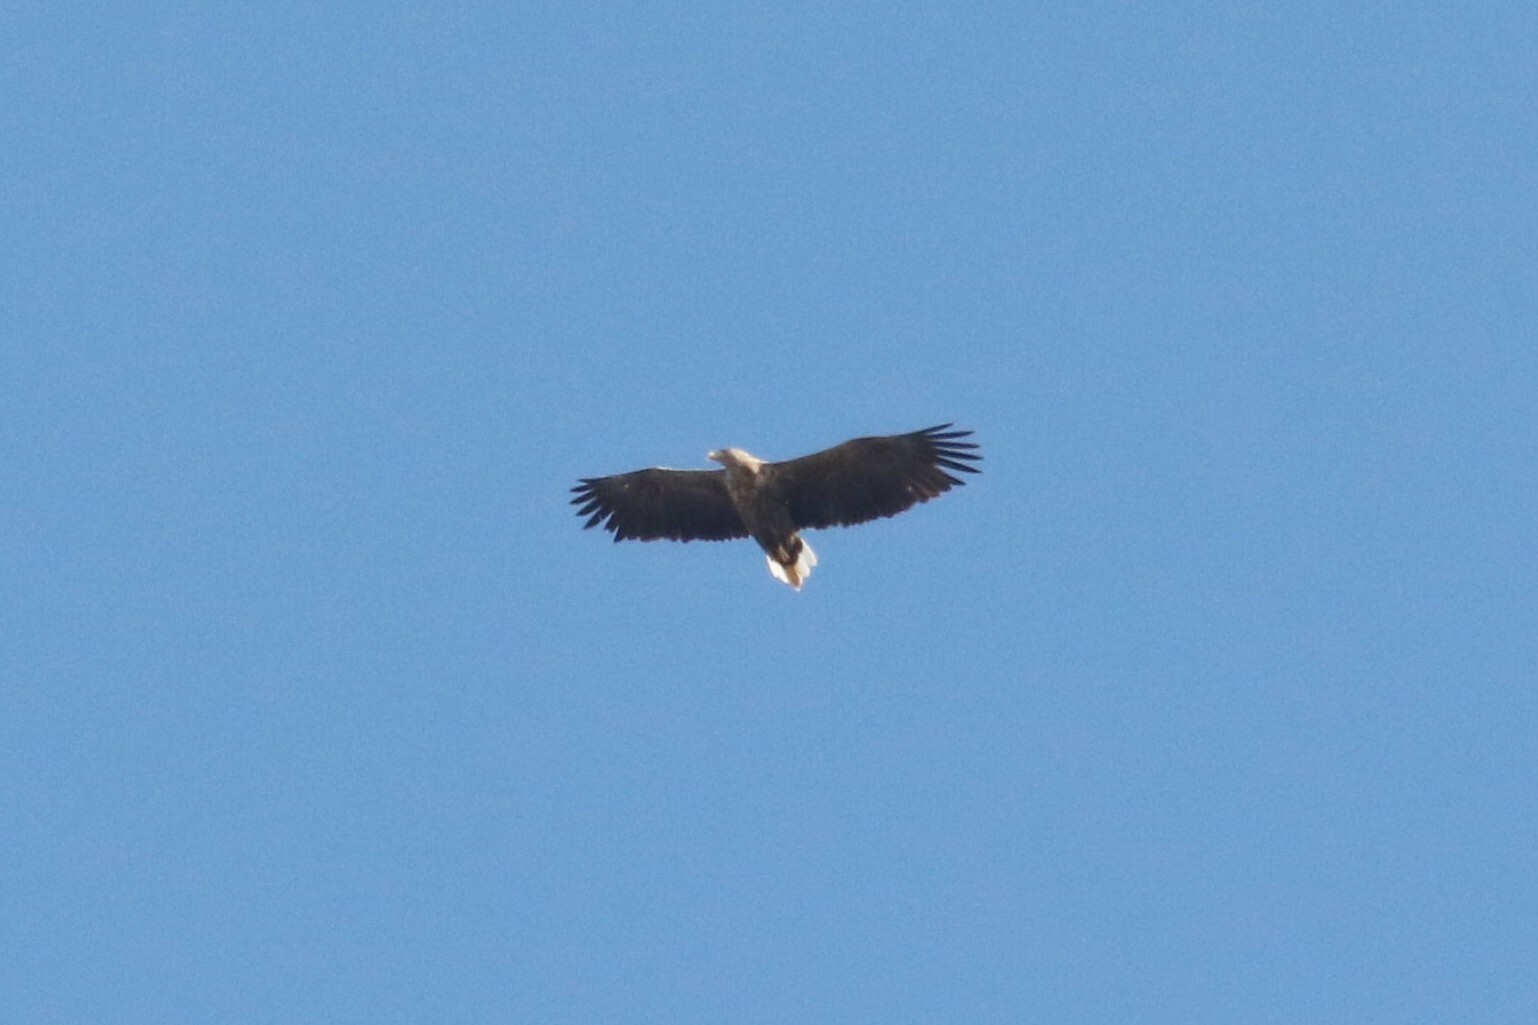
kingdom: Animalia
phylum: Chordata
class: Aves
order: Accipitriformes
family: Accipitridae
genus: Haliaeetus
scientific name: Haliaeetus albicilla
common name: White-tailed eagle
